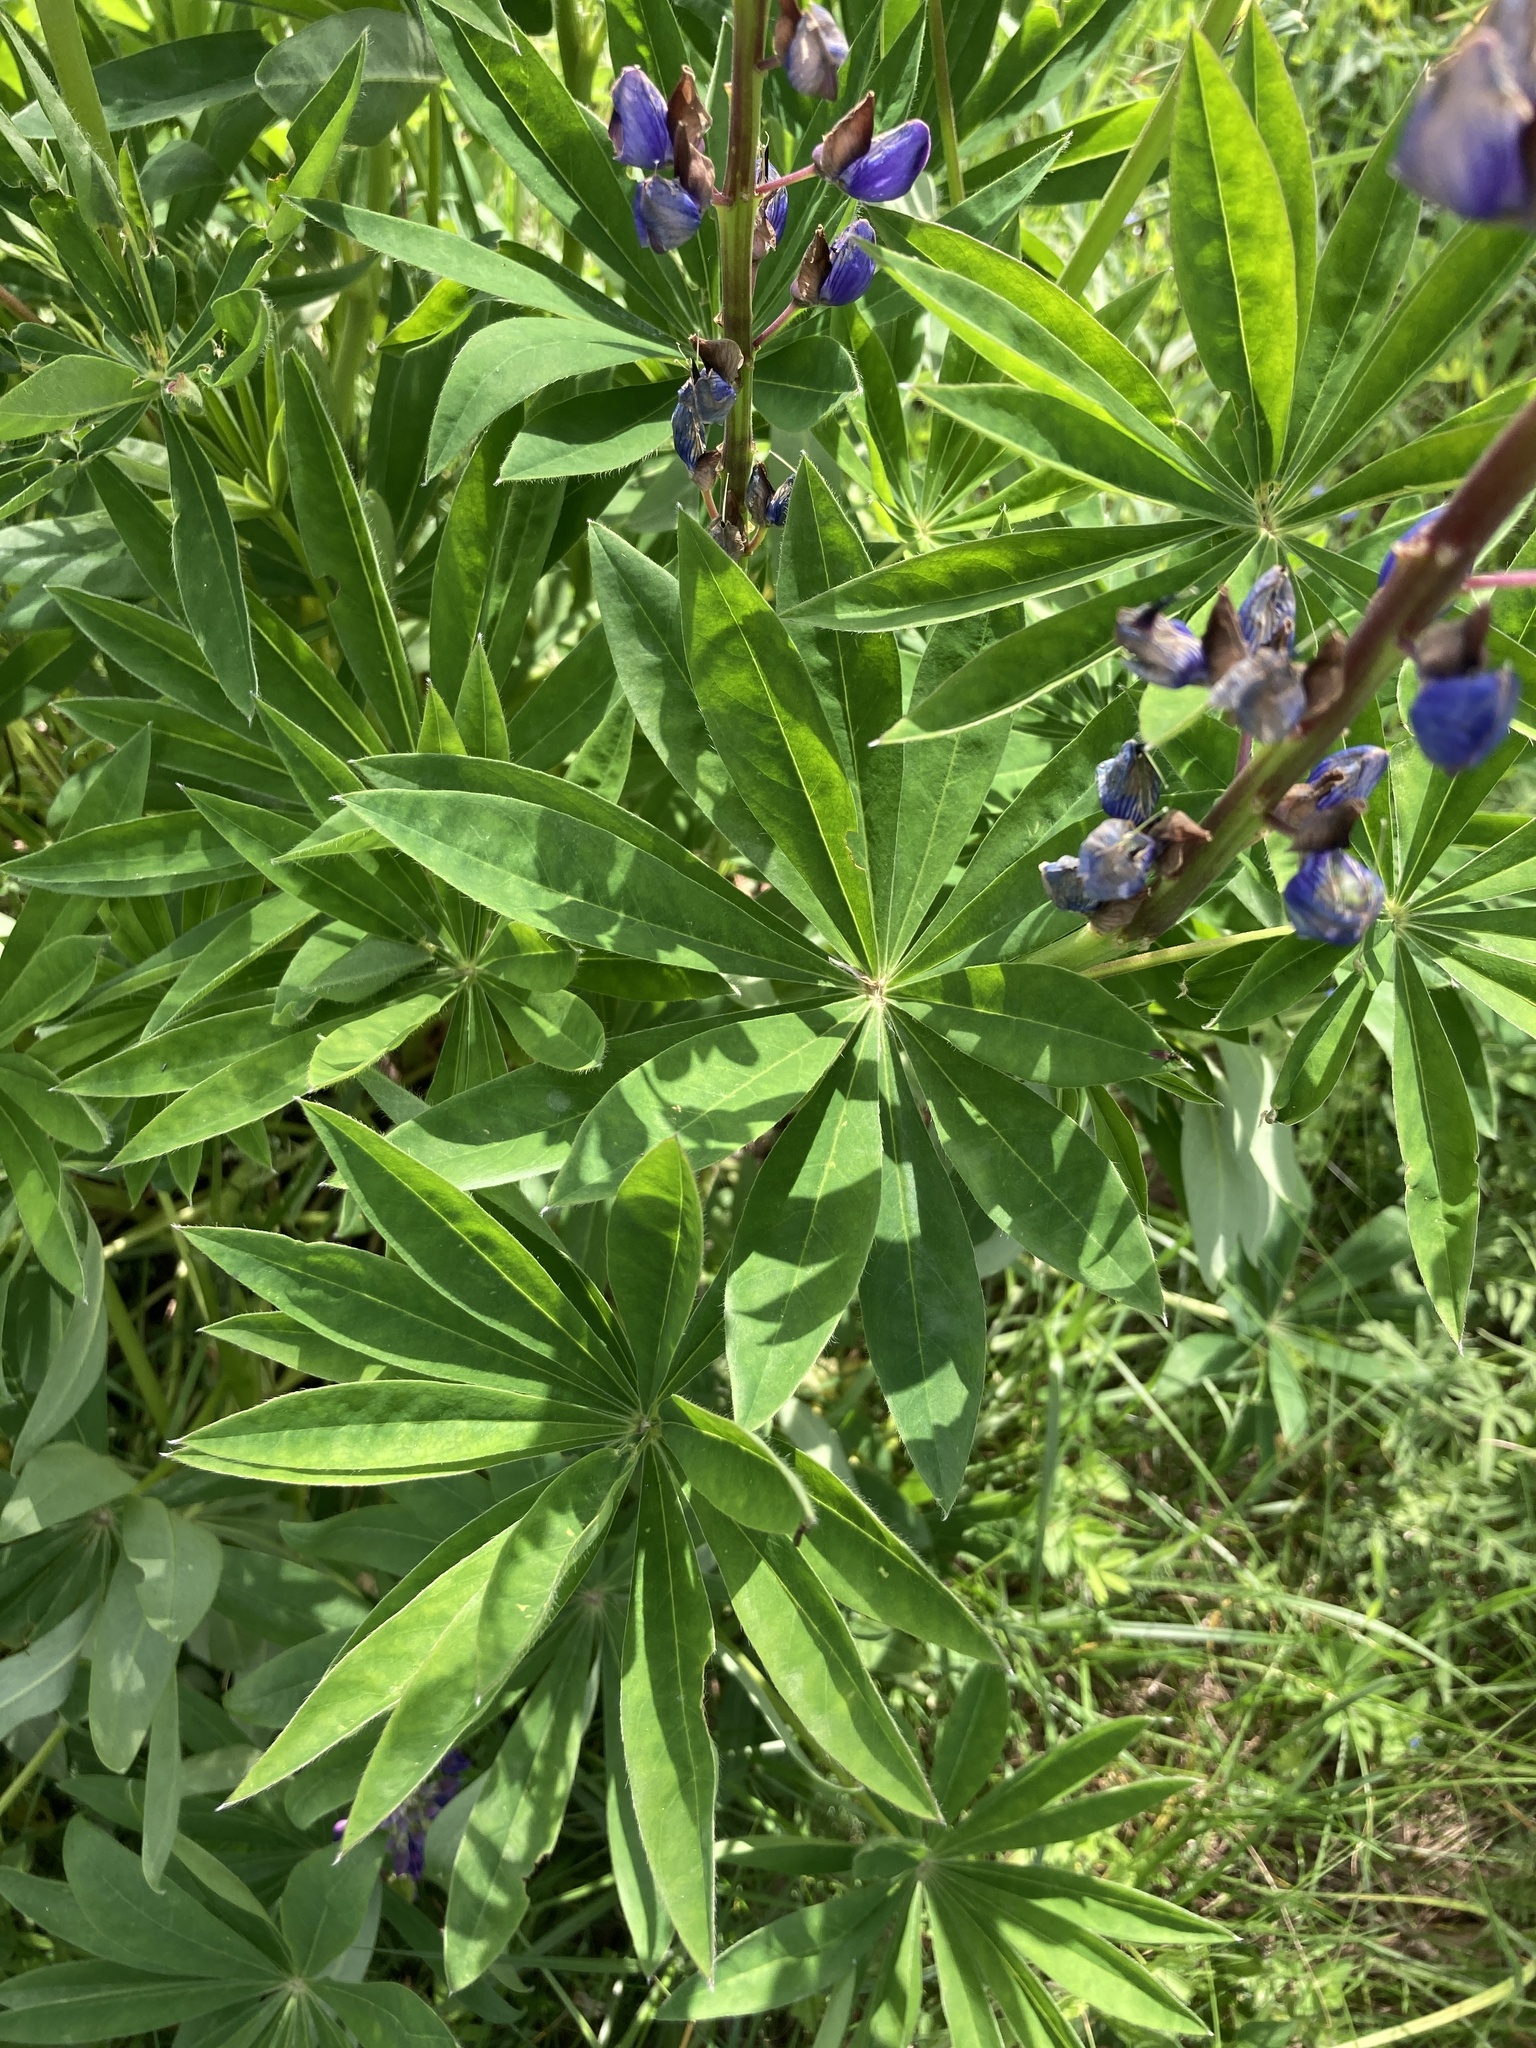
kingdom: Plantae
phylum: Tracheophyta
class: Magnoliopsida
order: Fabales
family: Fabaceae
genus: Lupinus
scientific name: Lupinus polyphyllus
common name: Garden lupin
